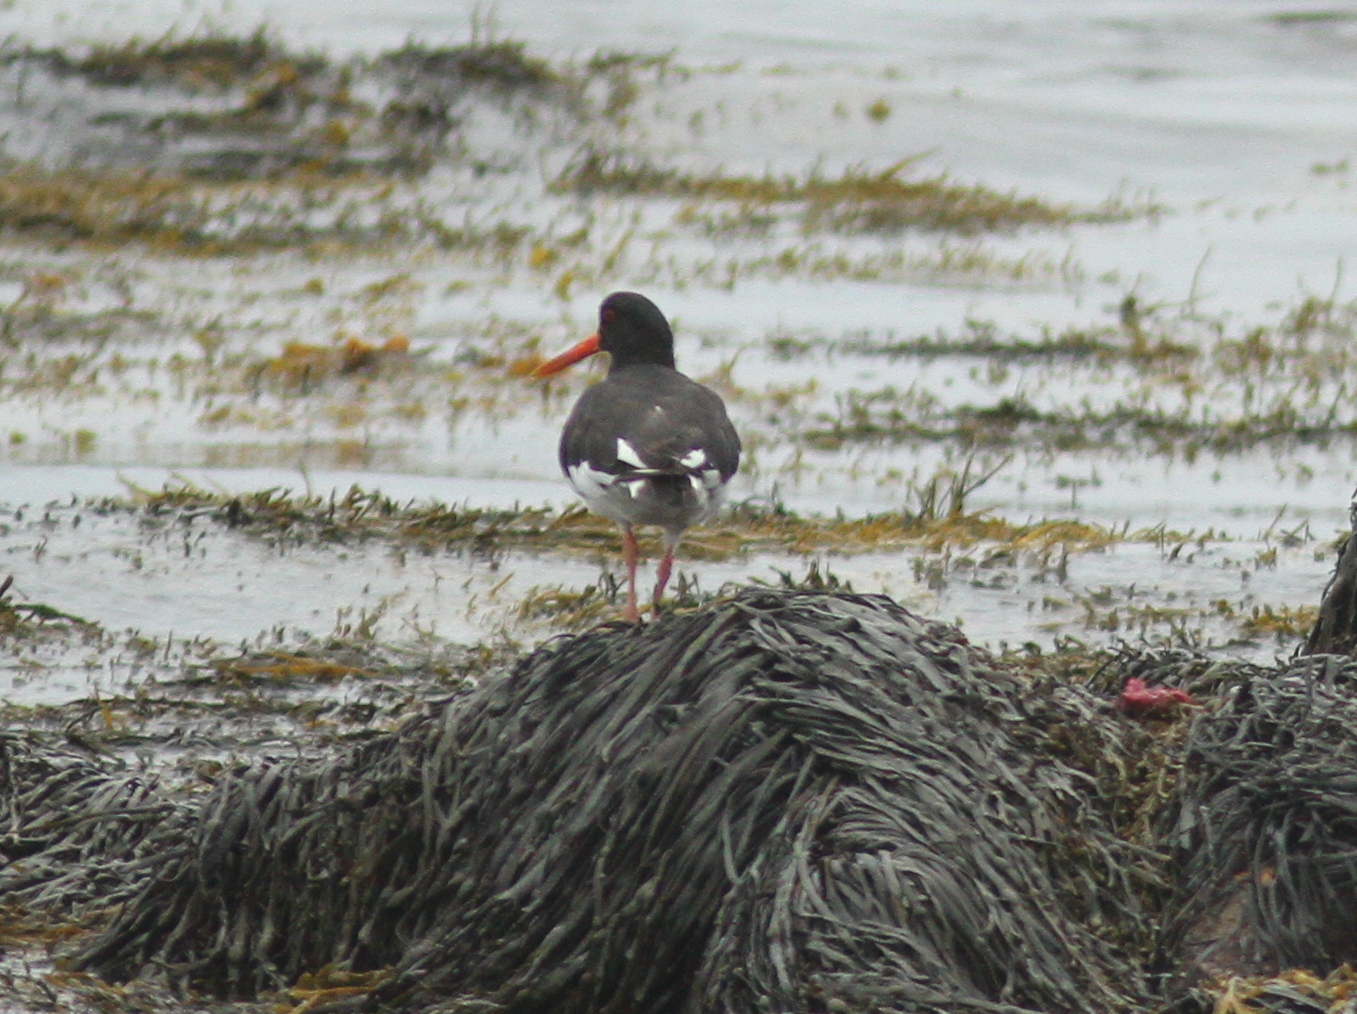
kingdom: Animalia
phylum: Chordata
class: Aves
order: Charadriiformes
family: Haematopodidae
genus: Haematopus
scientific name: Haematopus ostralegus
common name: Eurasian oystercatcher
